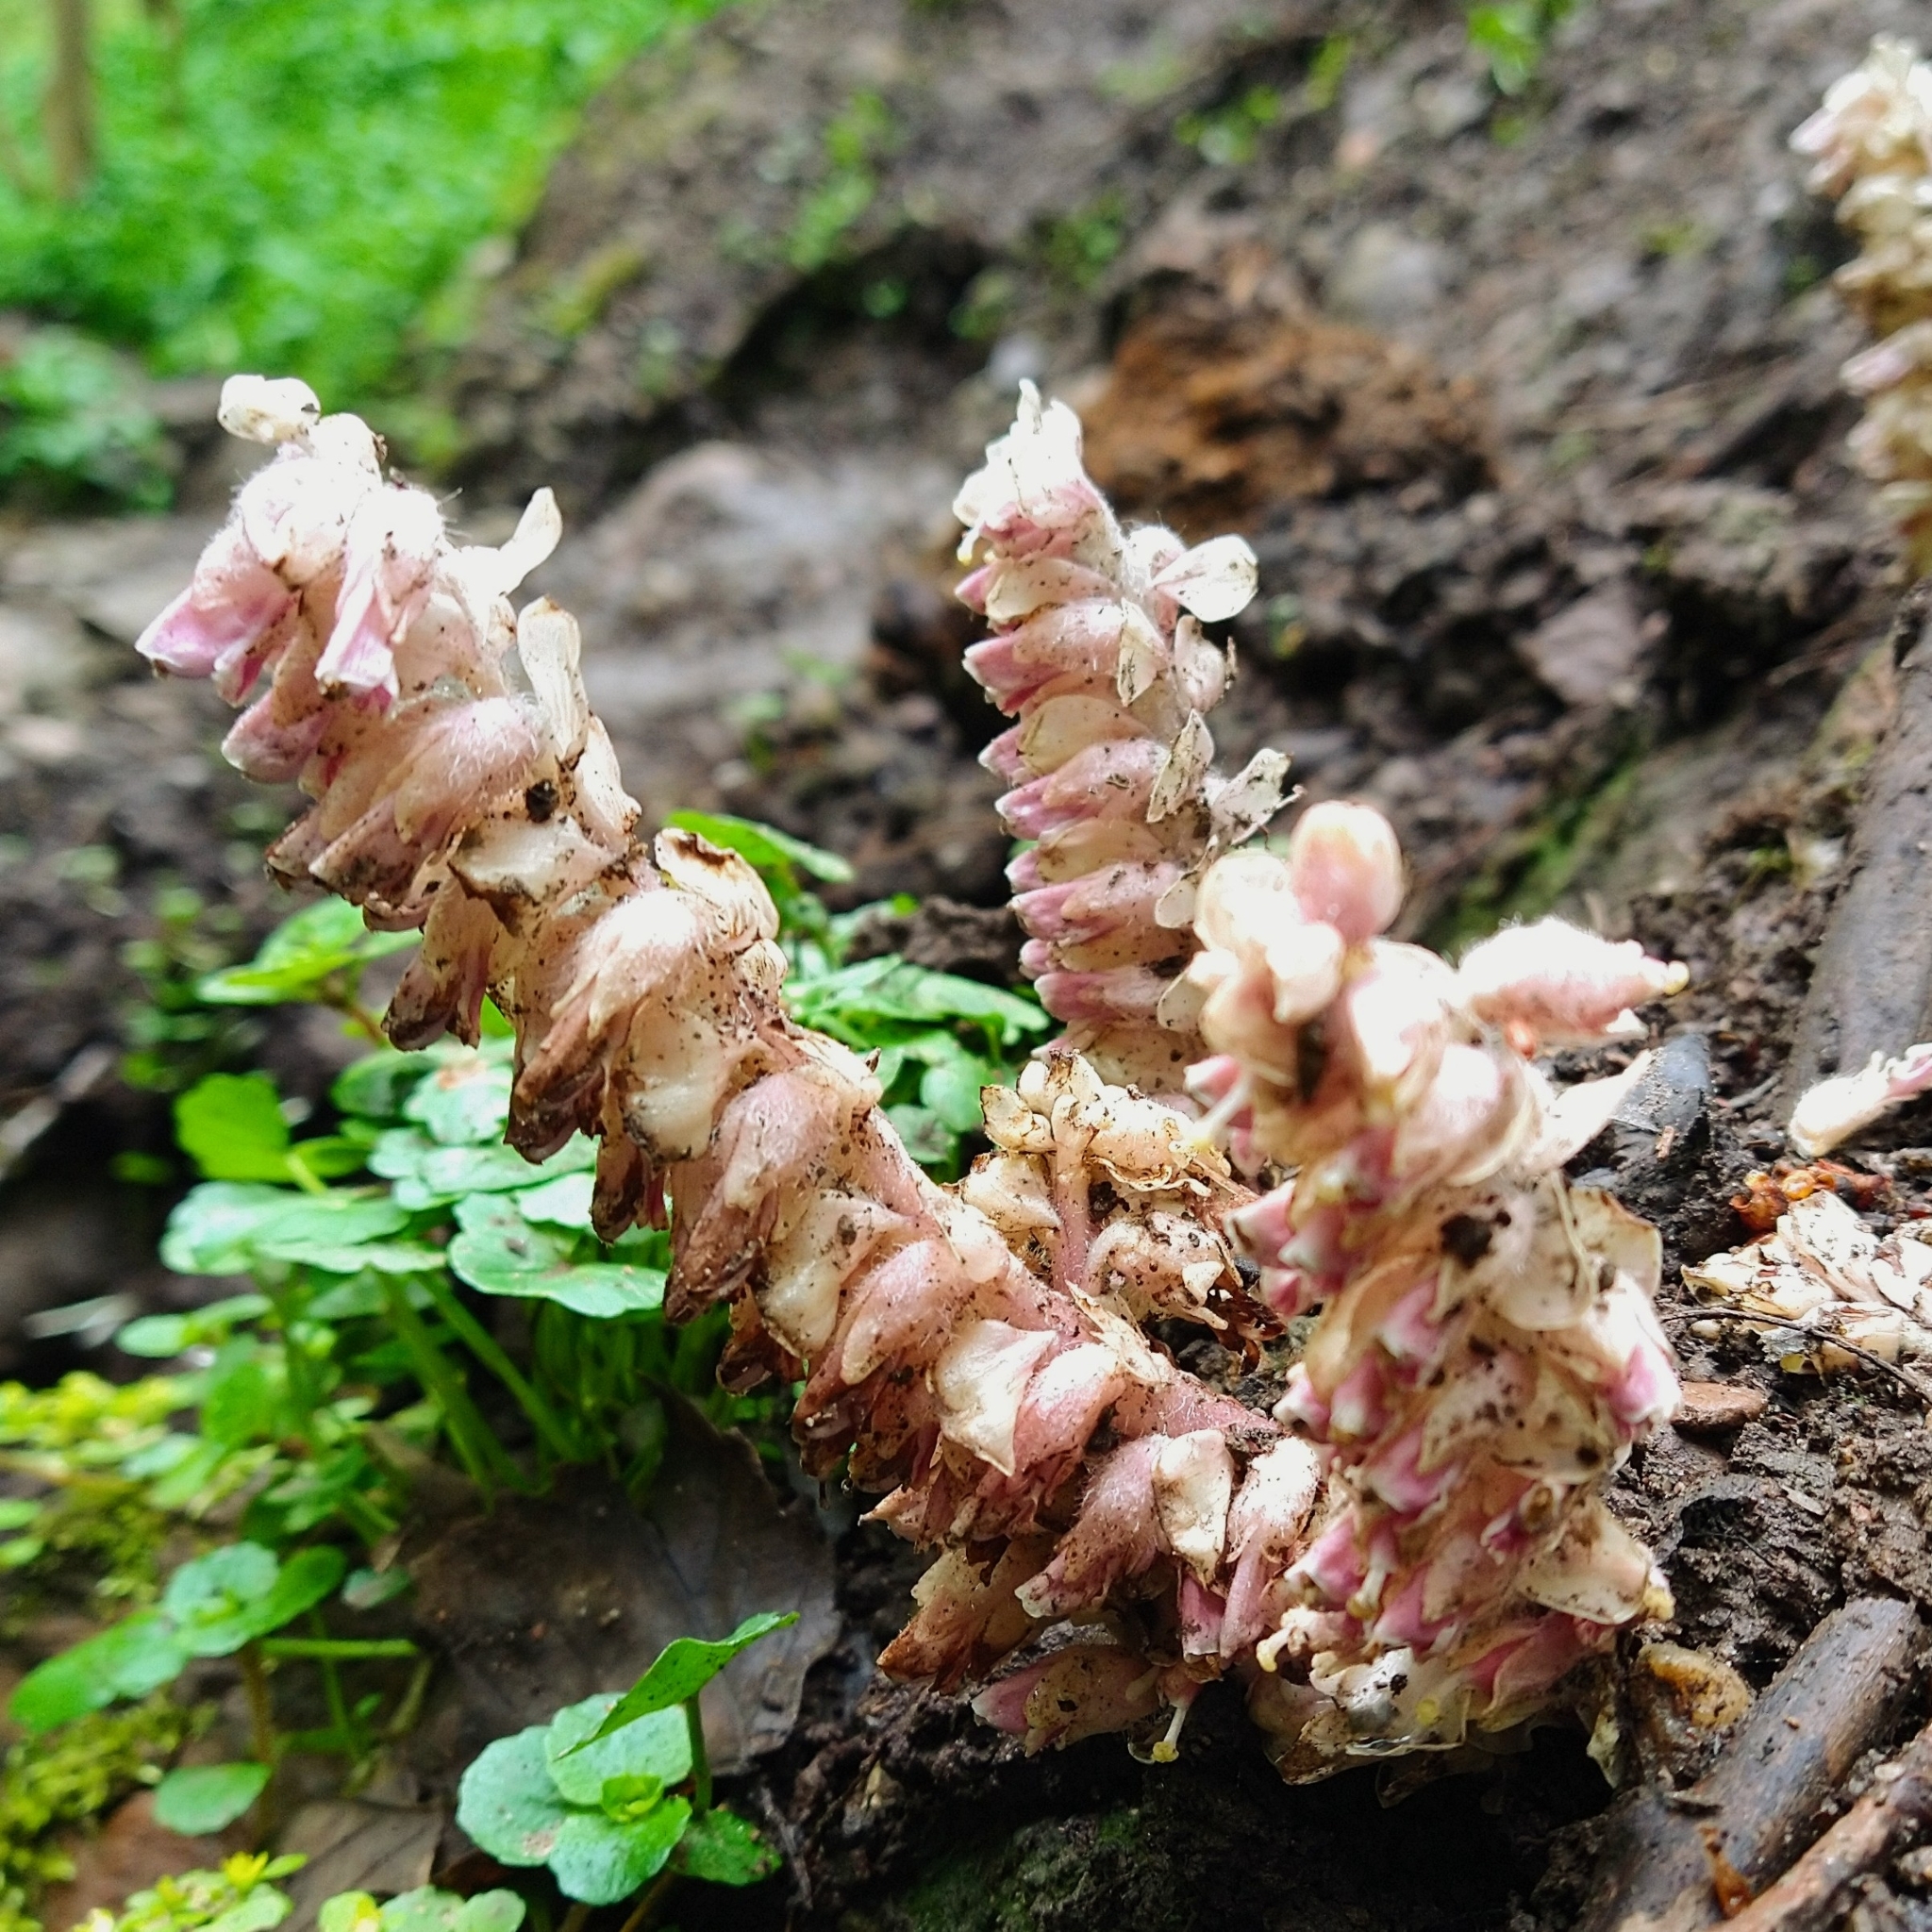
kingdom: Plantae
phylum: Tracheophyta
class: Magnoliopsida
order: Lamiales
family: Orobanchaceae
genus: Lathraea
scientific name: Lathraea squamaria
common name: Toothwort
